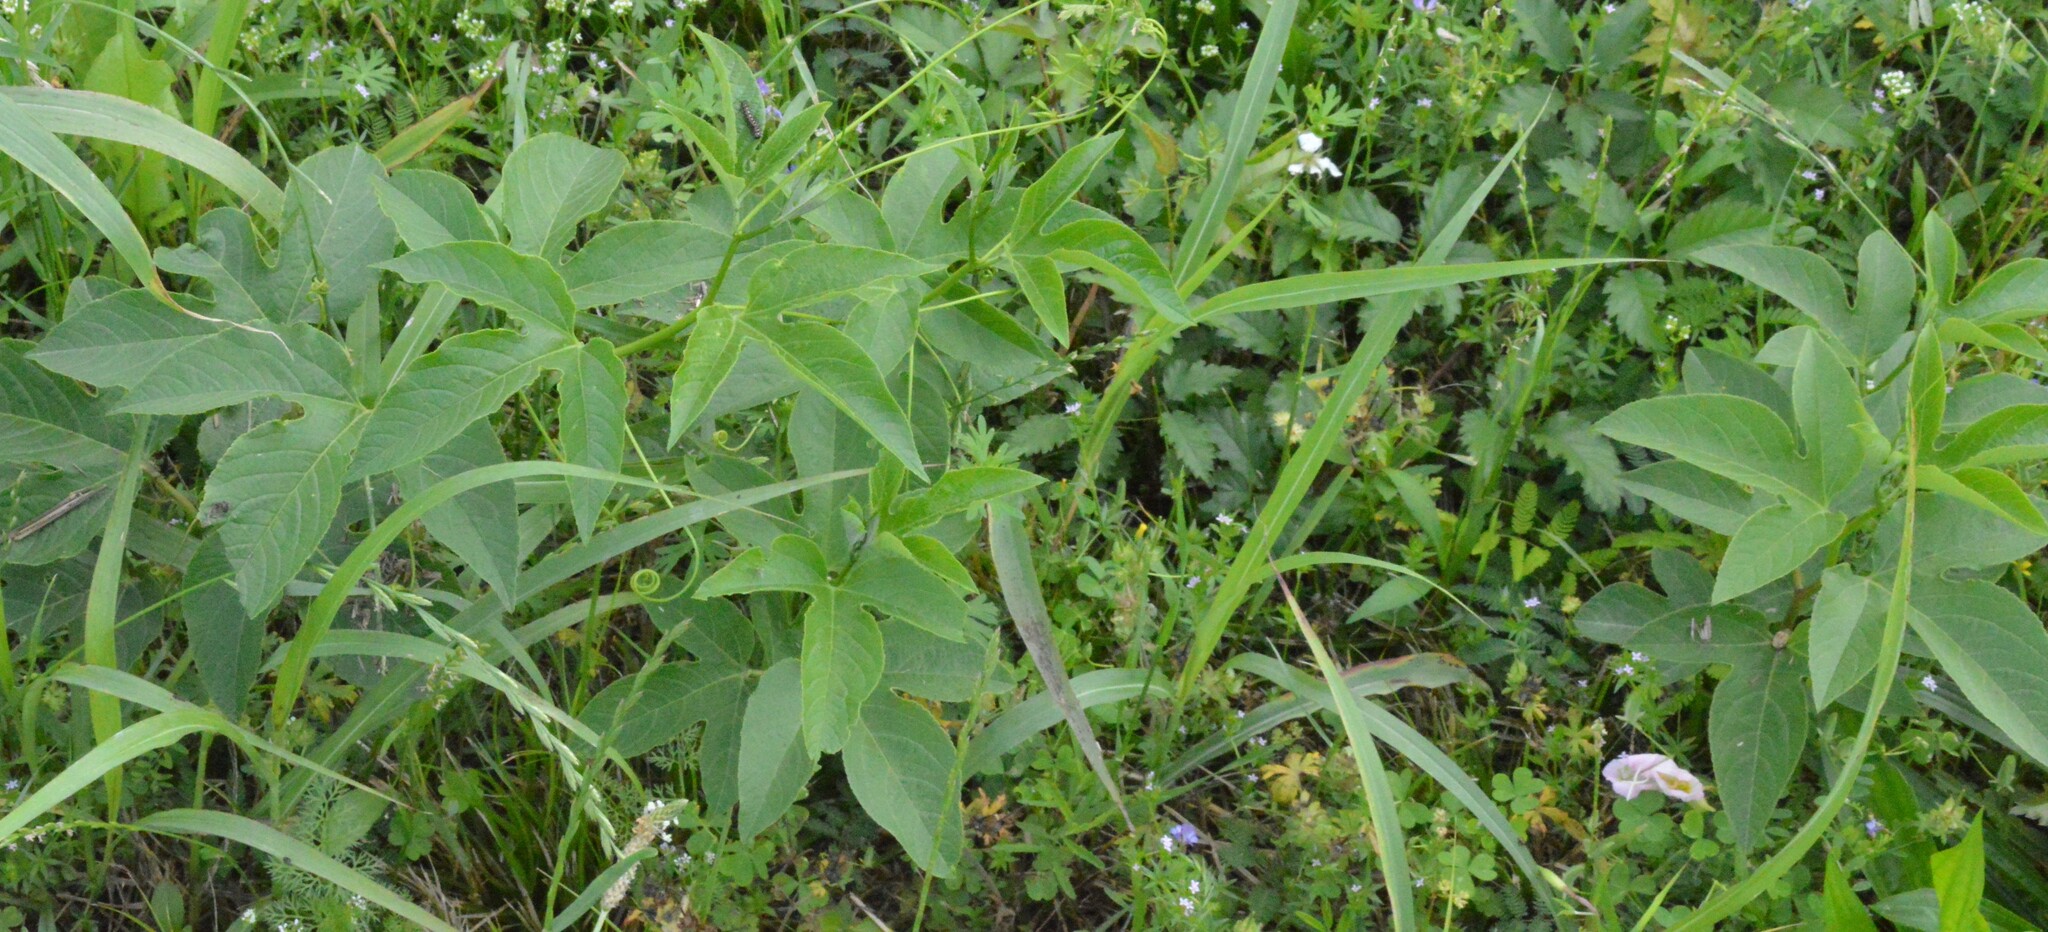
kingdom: Plantae
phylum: Tracheophyta
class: Magnoliopsida
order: Malpighiales
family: Passifloraceae
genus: Passiflora
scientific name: Passiflora incarnata
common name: Apricot-vine
